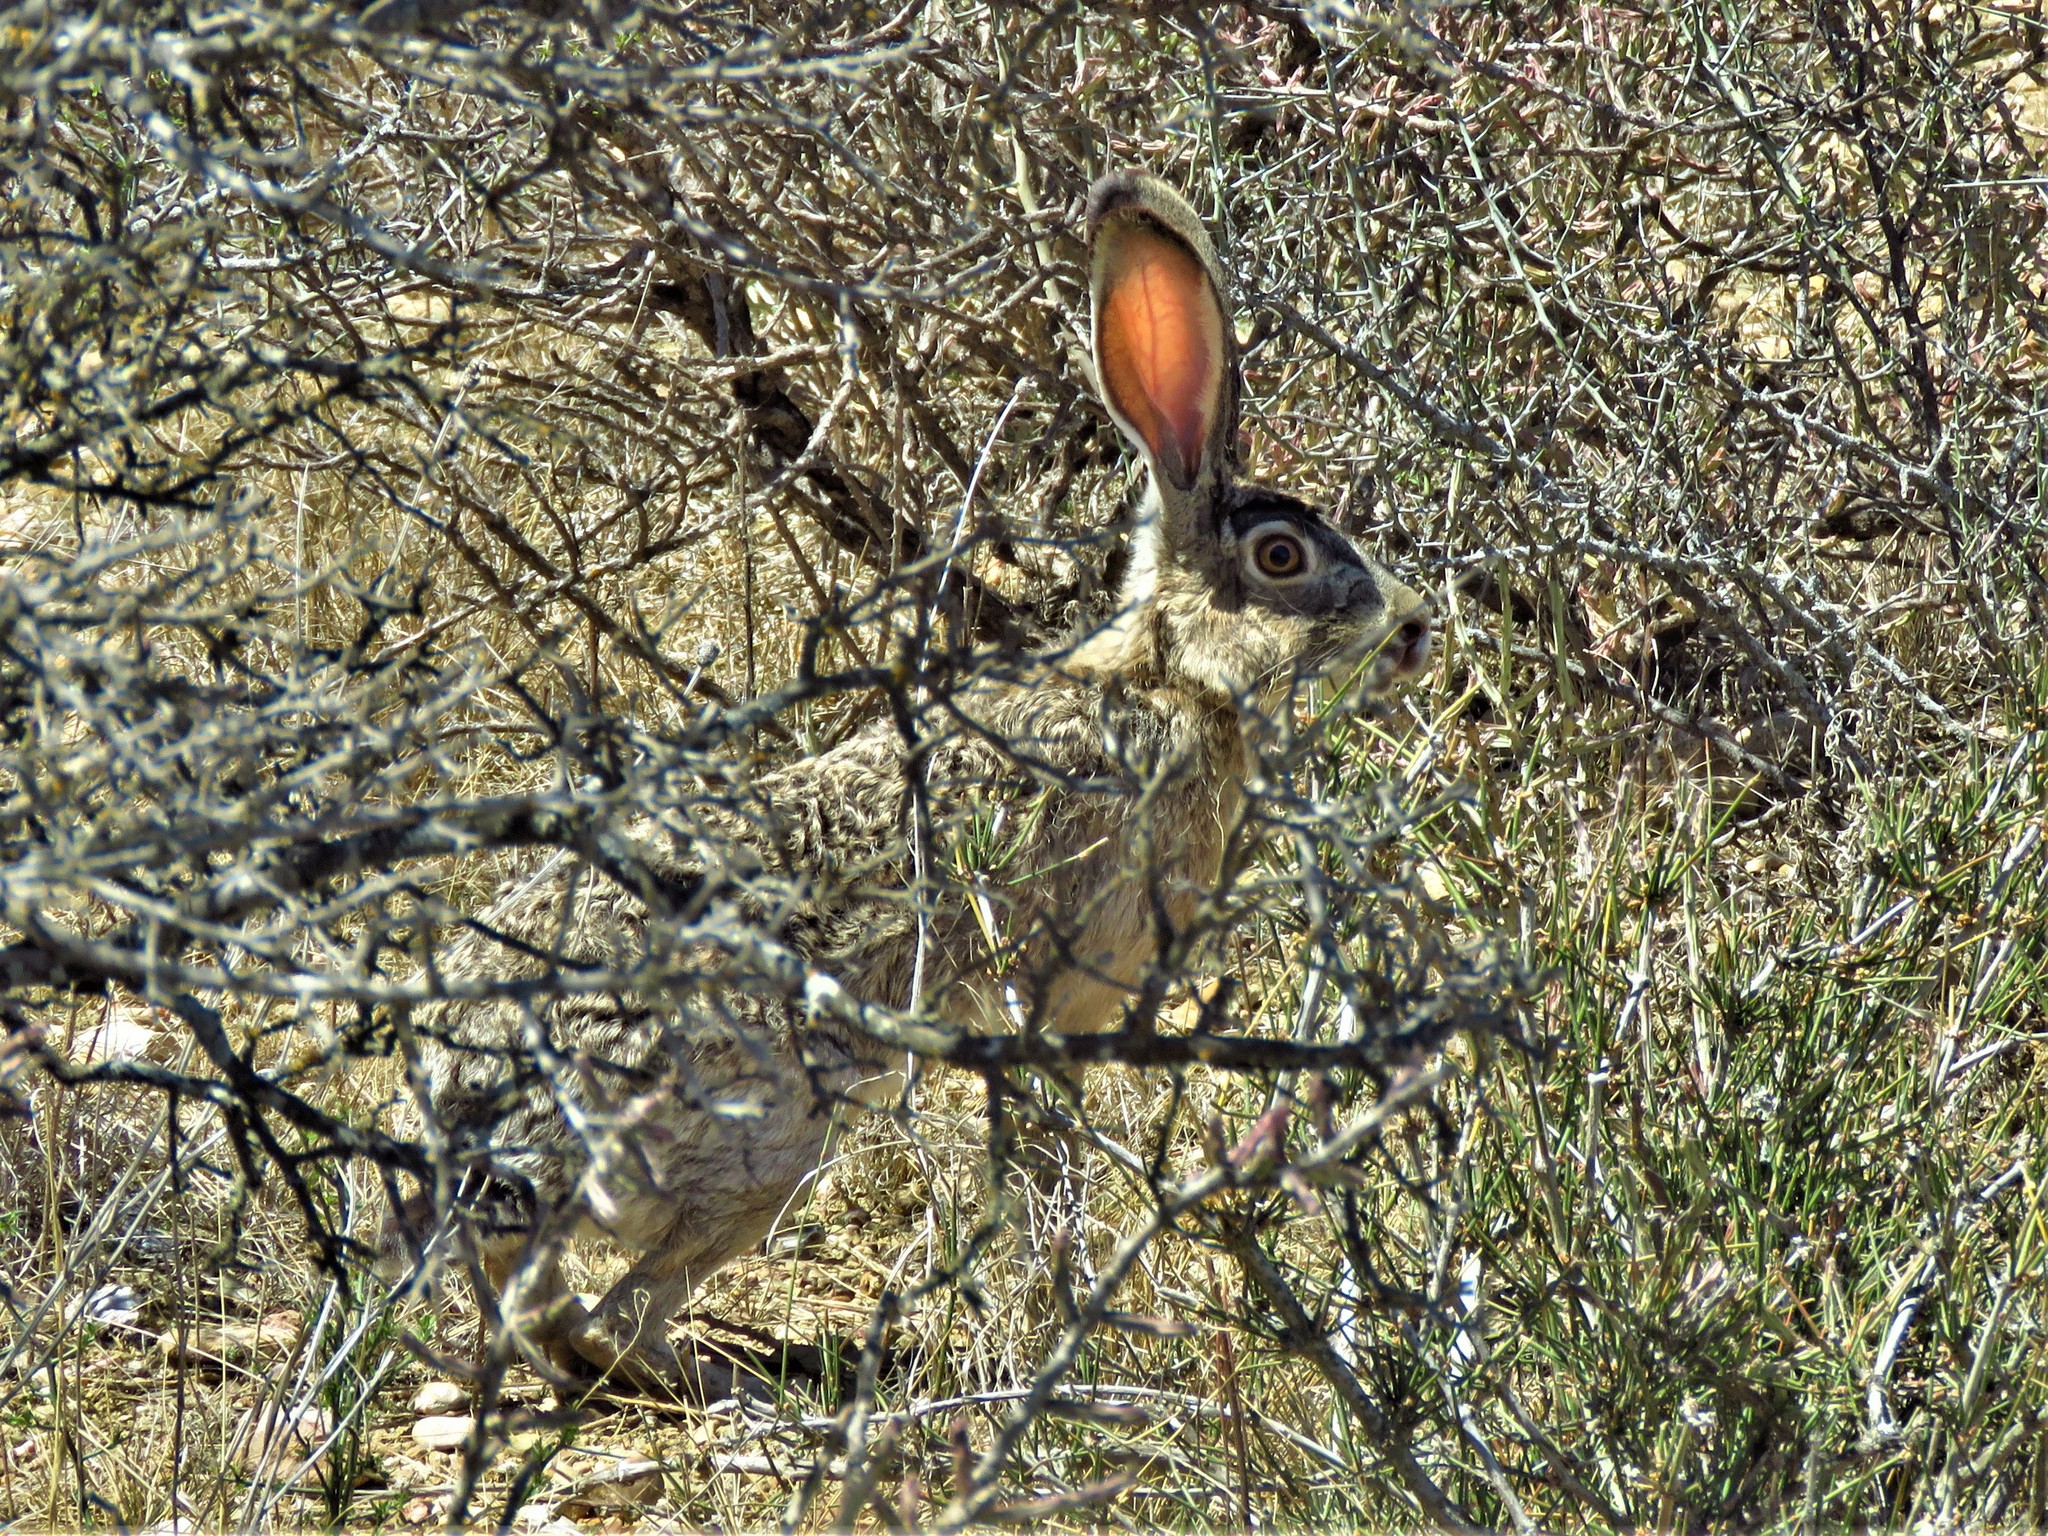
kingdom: Animalia
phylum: Chordata
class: Mammalia
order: Lagomorpha
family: Leporidae
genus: Lepus
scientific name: Lepus californicus
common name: Black-tailed jackrabbit
